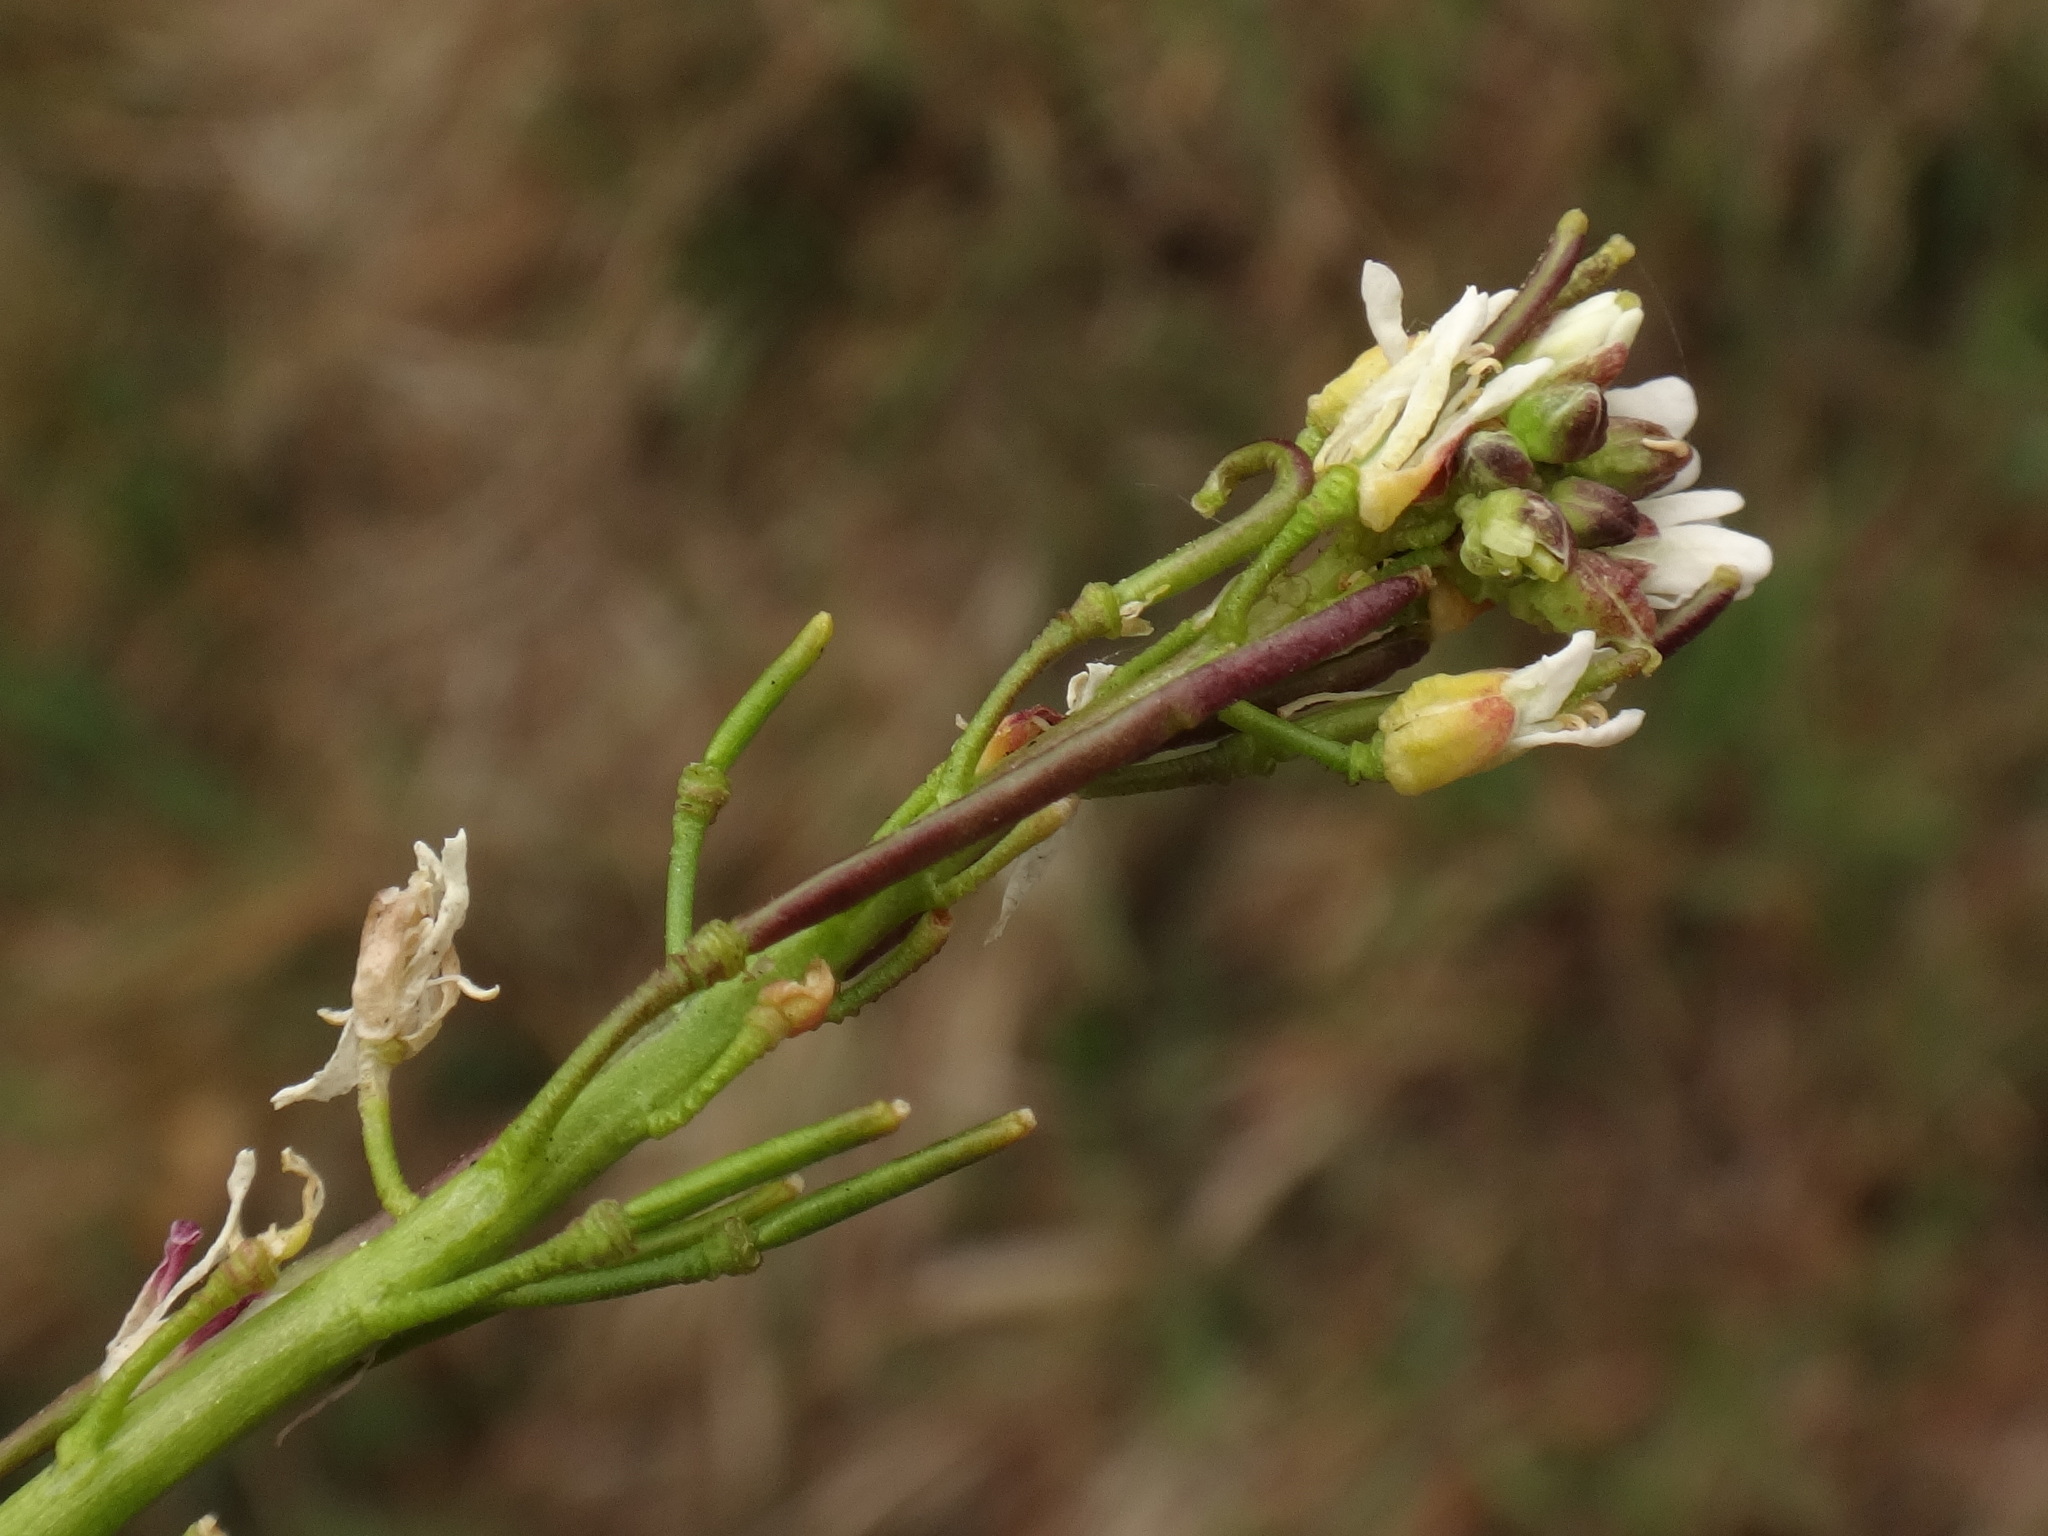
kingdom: Plantae
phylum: Tracheophyta
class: Magnoliopsida
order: Brassicales
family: Brassicaceae
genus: Arabis
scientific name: Arabis hirsuta
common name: Hairy rock-cress
